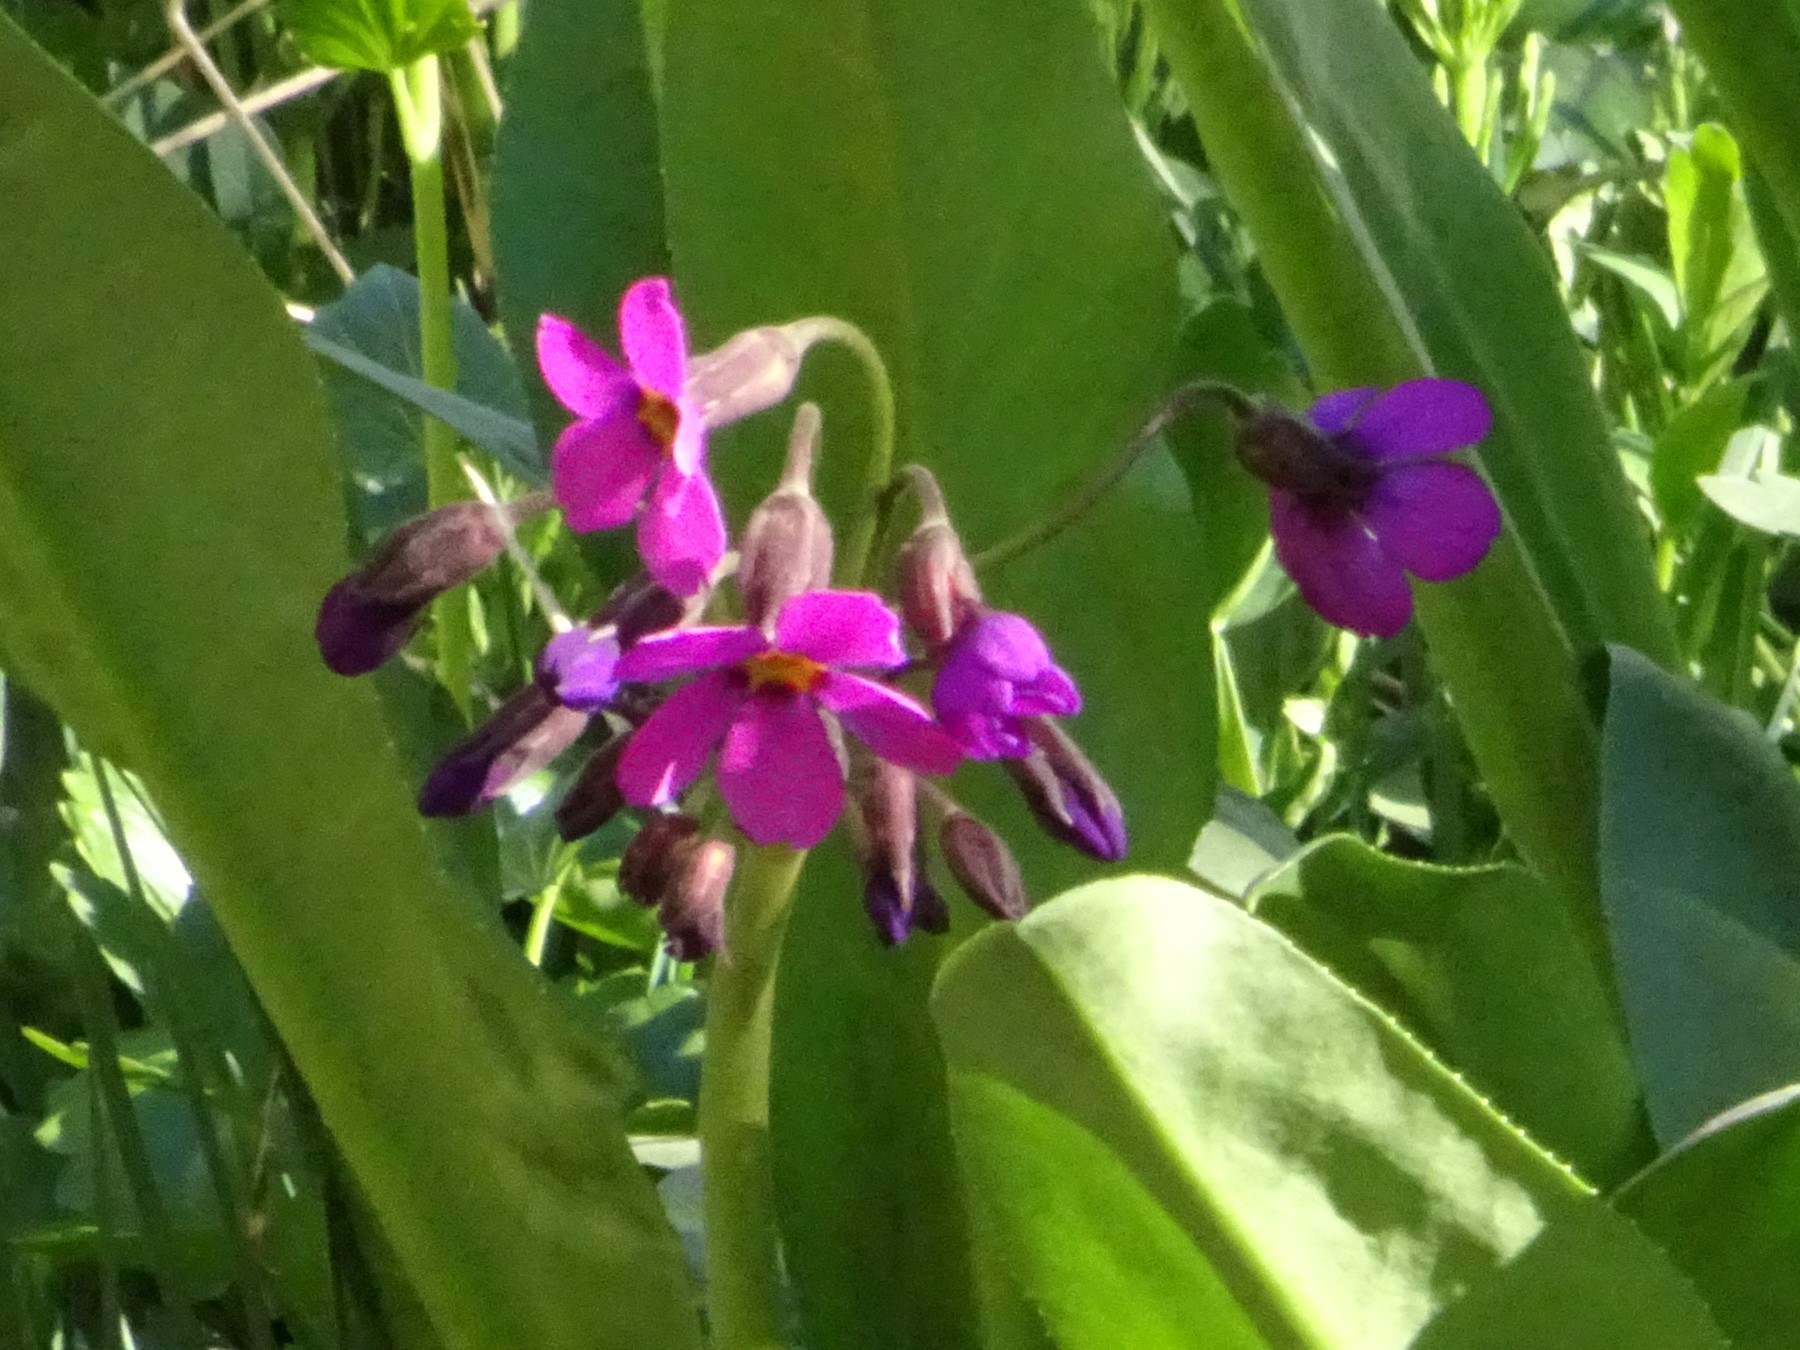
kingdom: Plantae
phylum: Tracheophyta
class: Magnoliopsida
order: Ericales
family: Primulaceae
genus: Primula
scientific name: Primula parryi
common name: Parry's primrose
